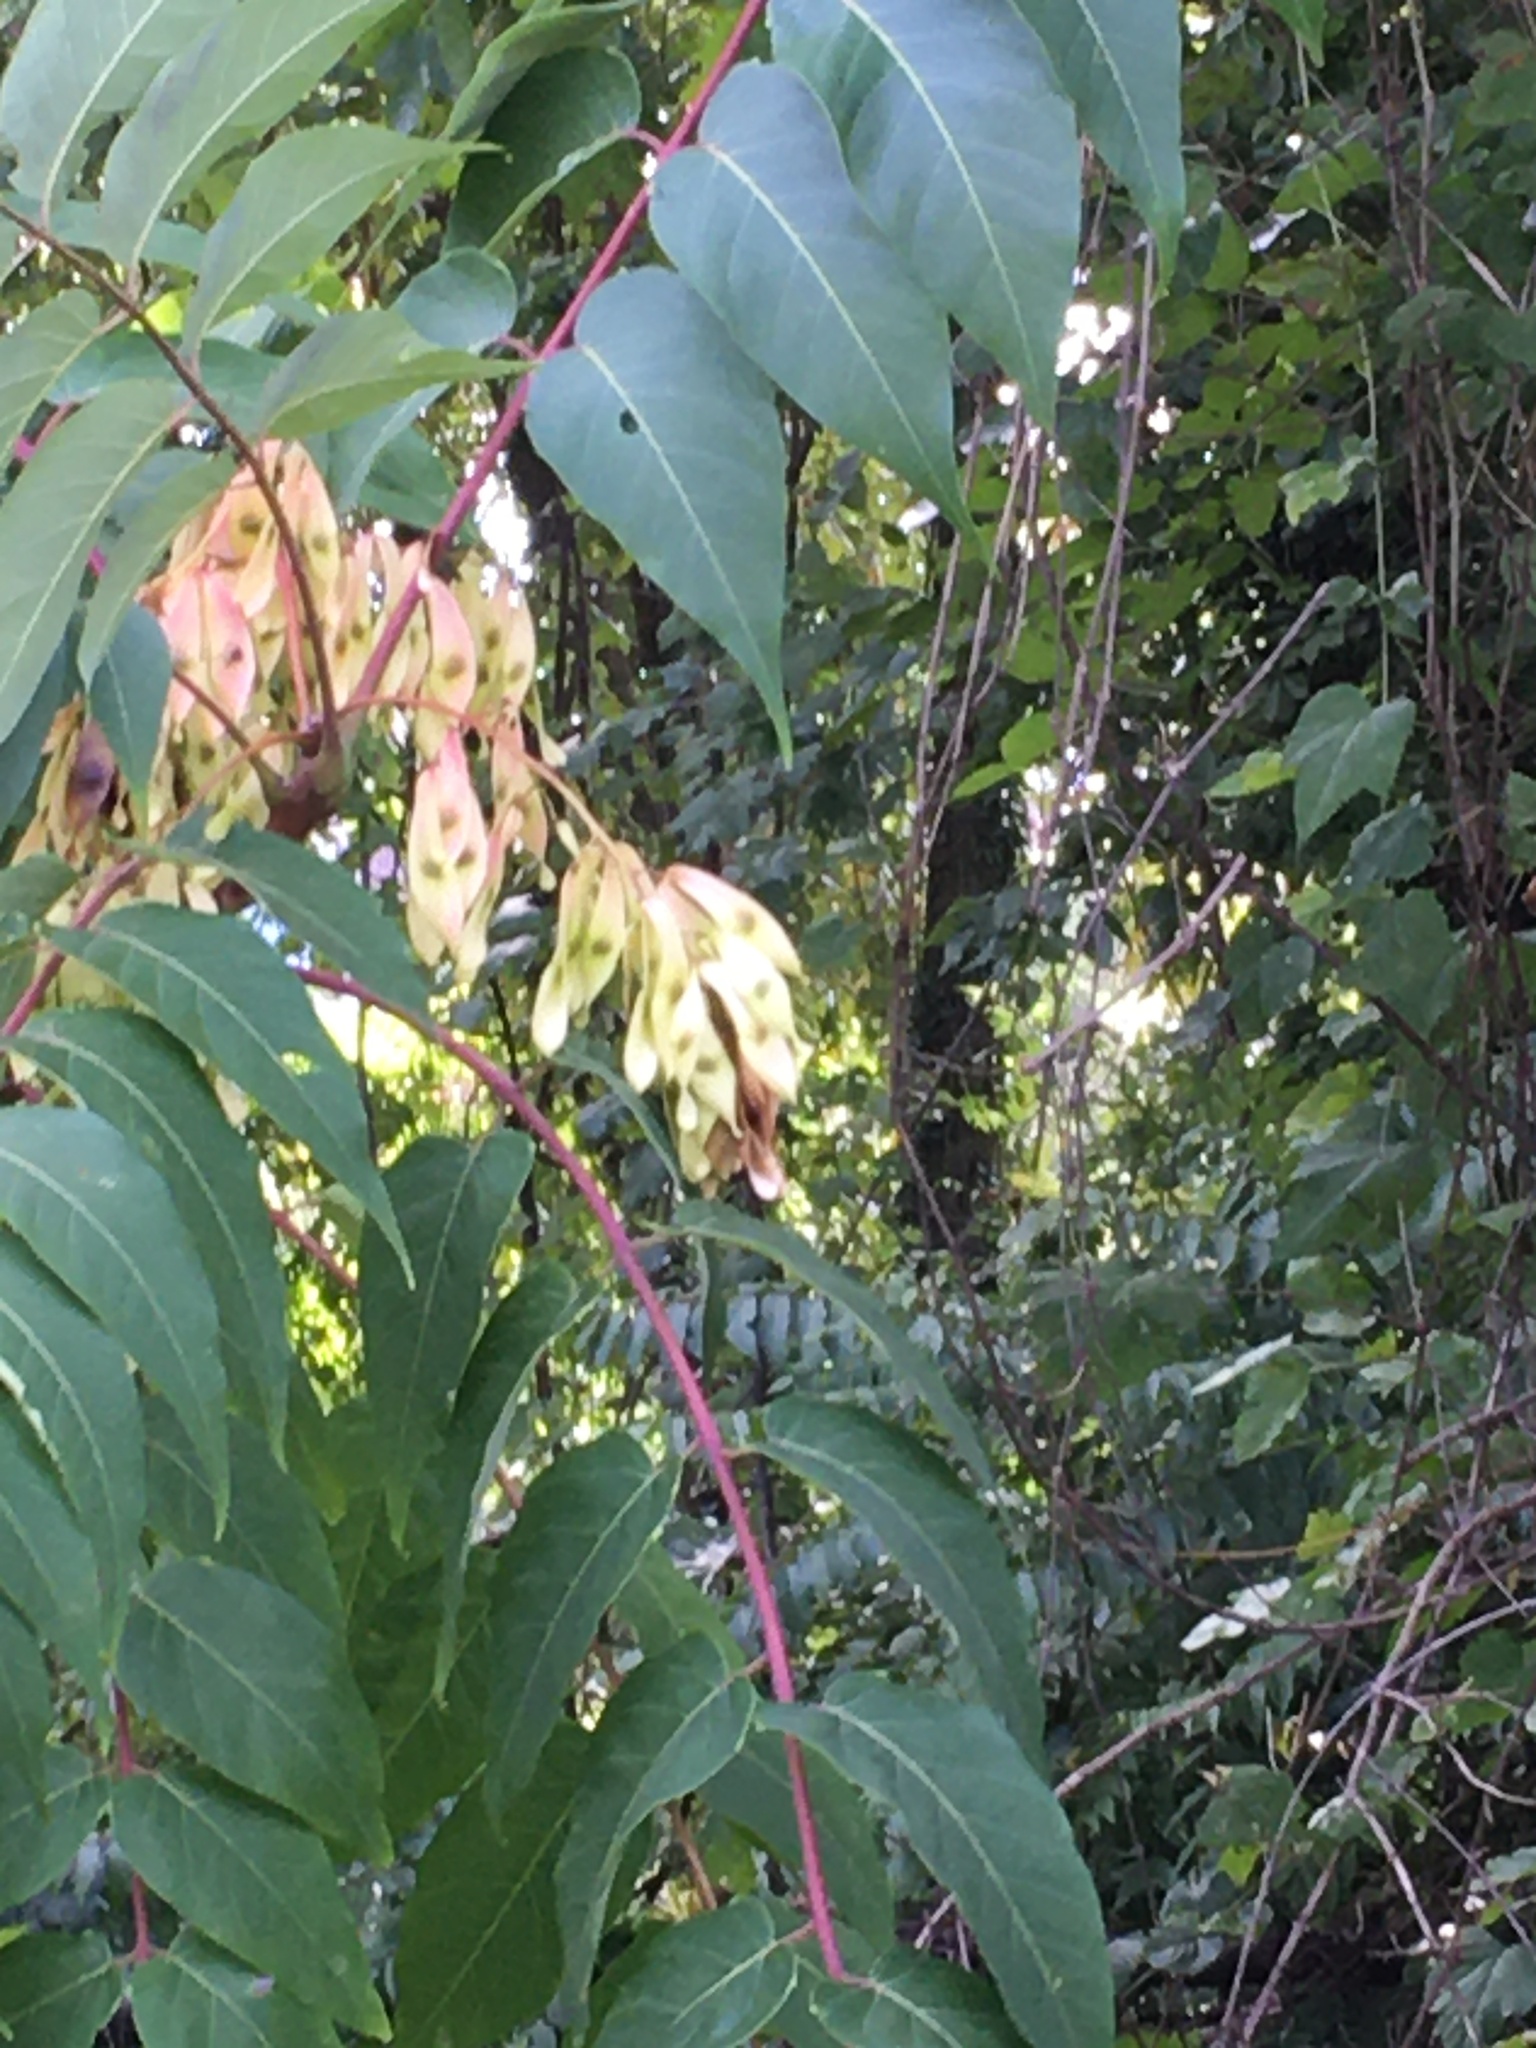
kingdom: Plantae
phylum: Tracheophyta
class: Magnoliopsida
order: Sapindales
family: Simaroubaceae
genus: Ailanthus
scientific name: Ailanthus altissima
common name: Tree-of-heaven
